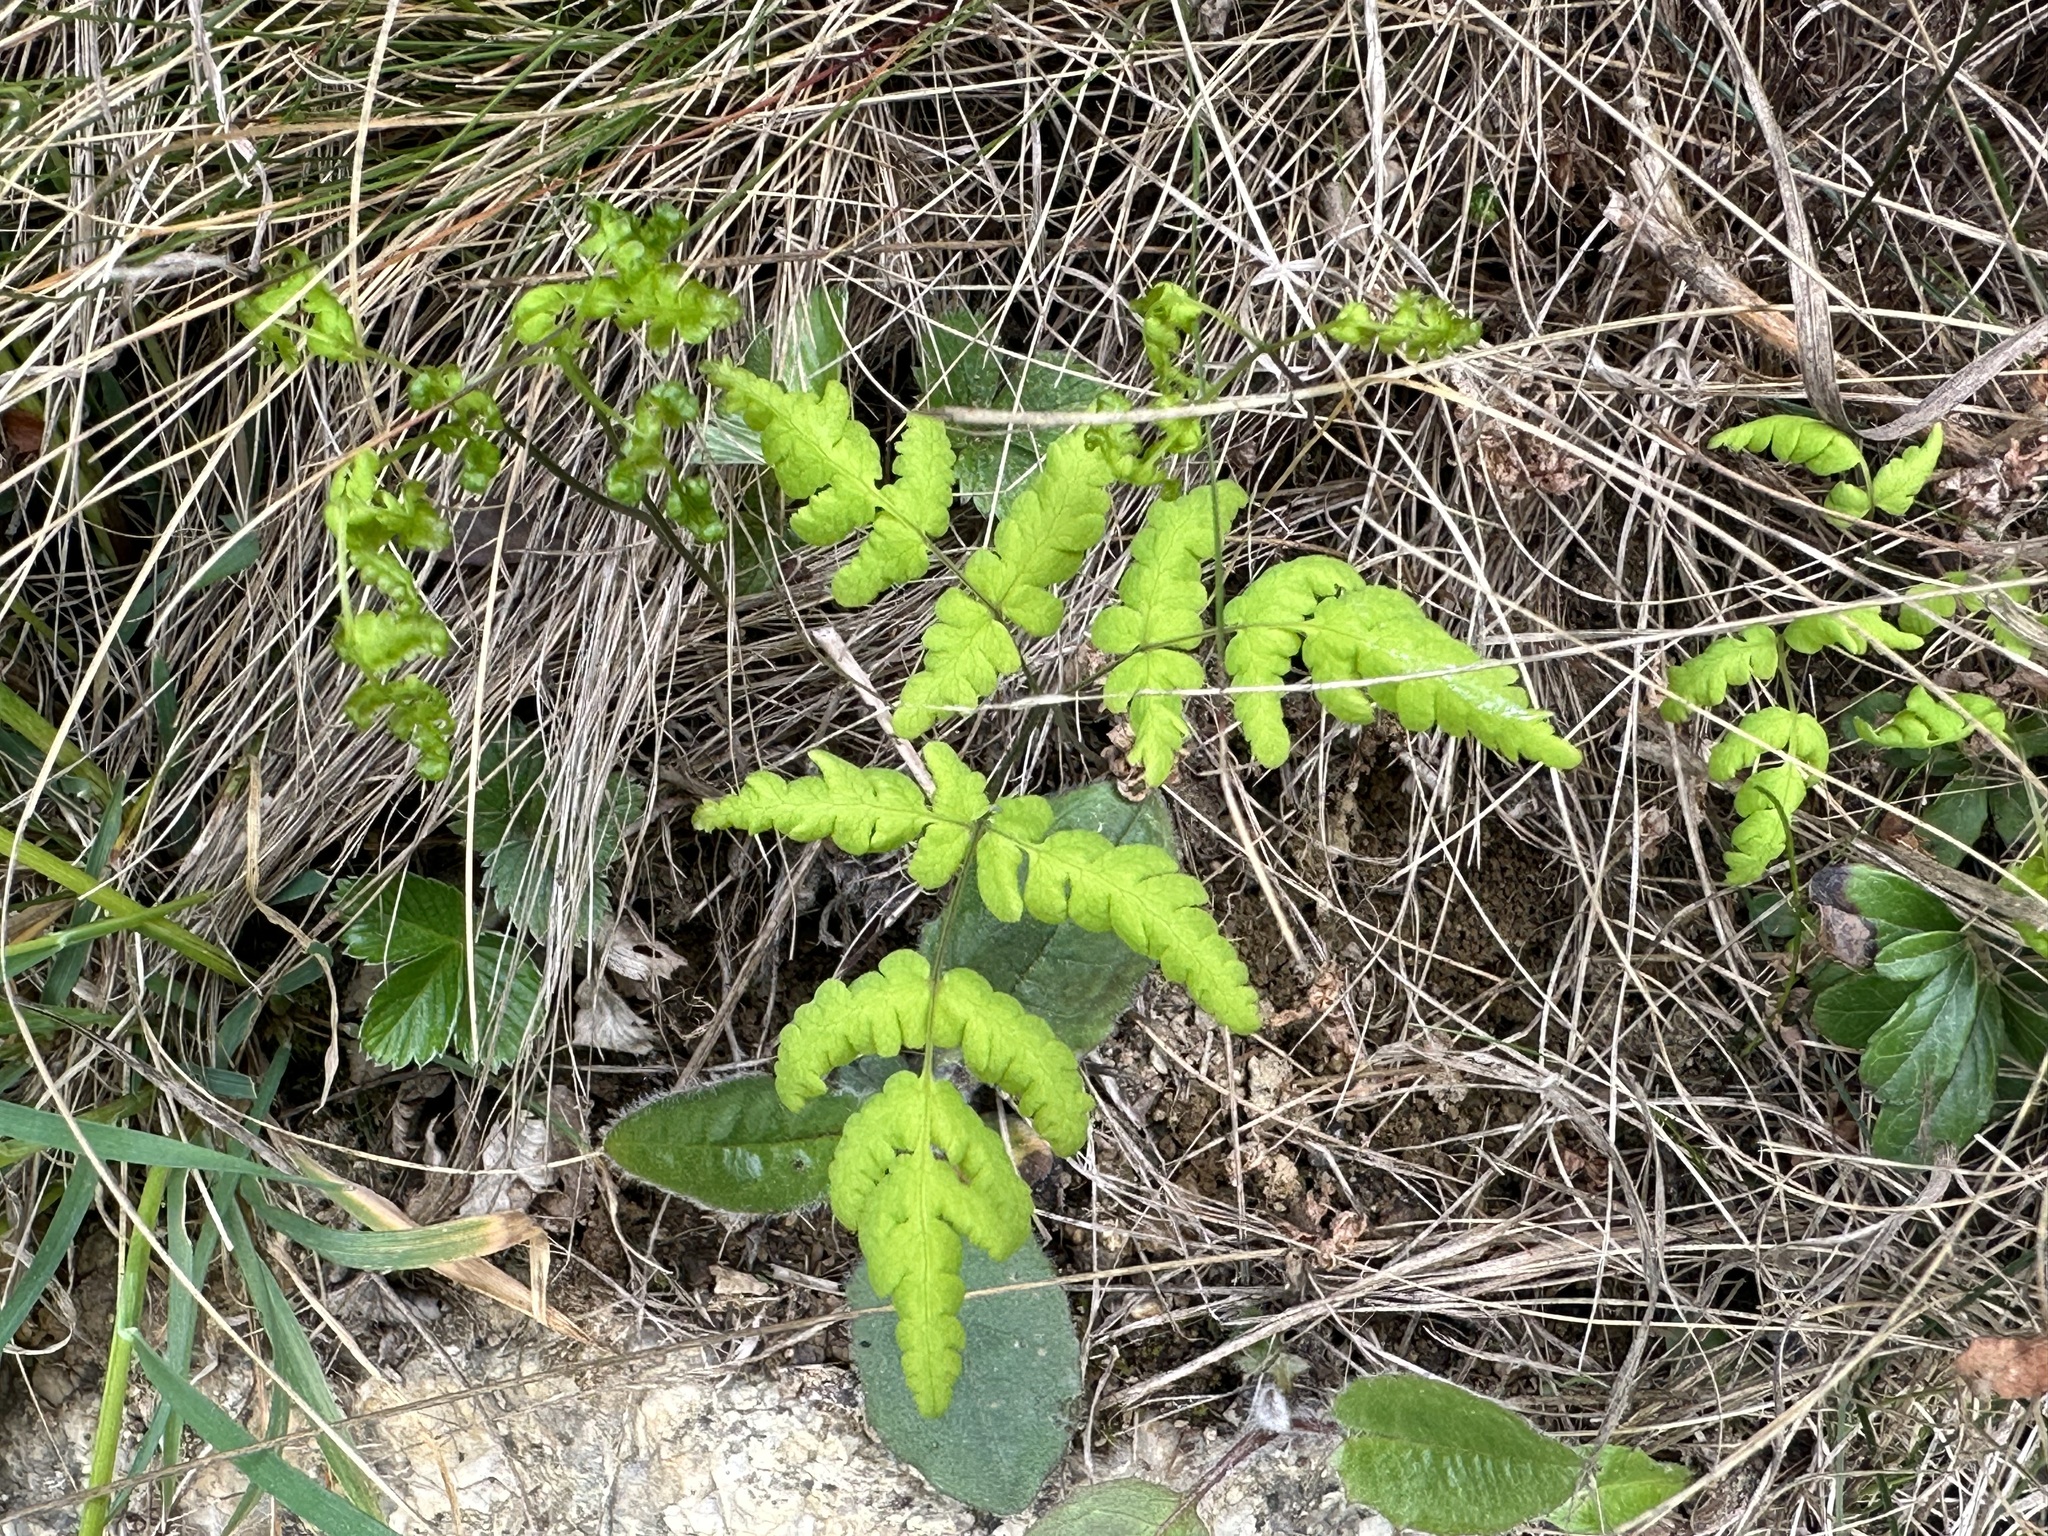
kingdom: Plantae
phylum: Tracheophyta
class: Polypodiopsida
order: Polypodiales
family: Cystopteridaceae
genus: Gymnocarpium
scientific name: Gymnocarpium dryopteris
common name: Oak fern
